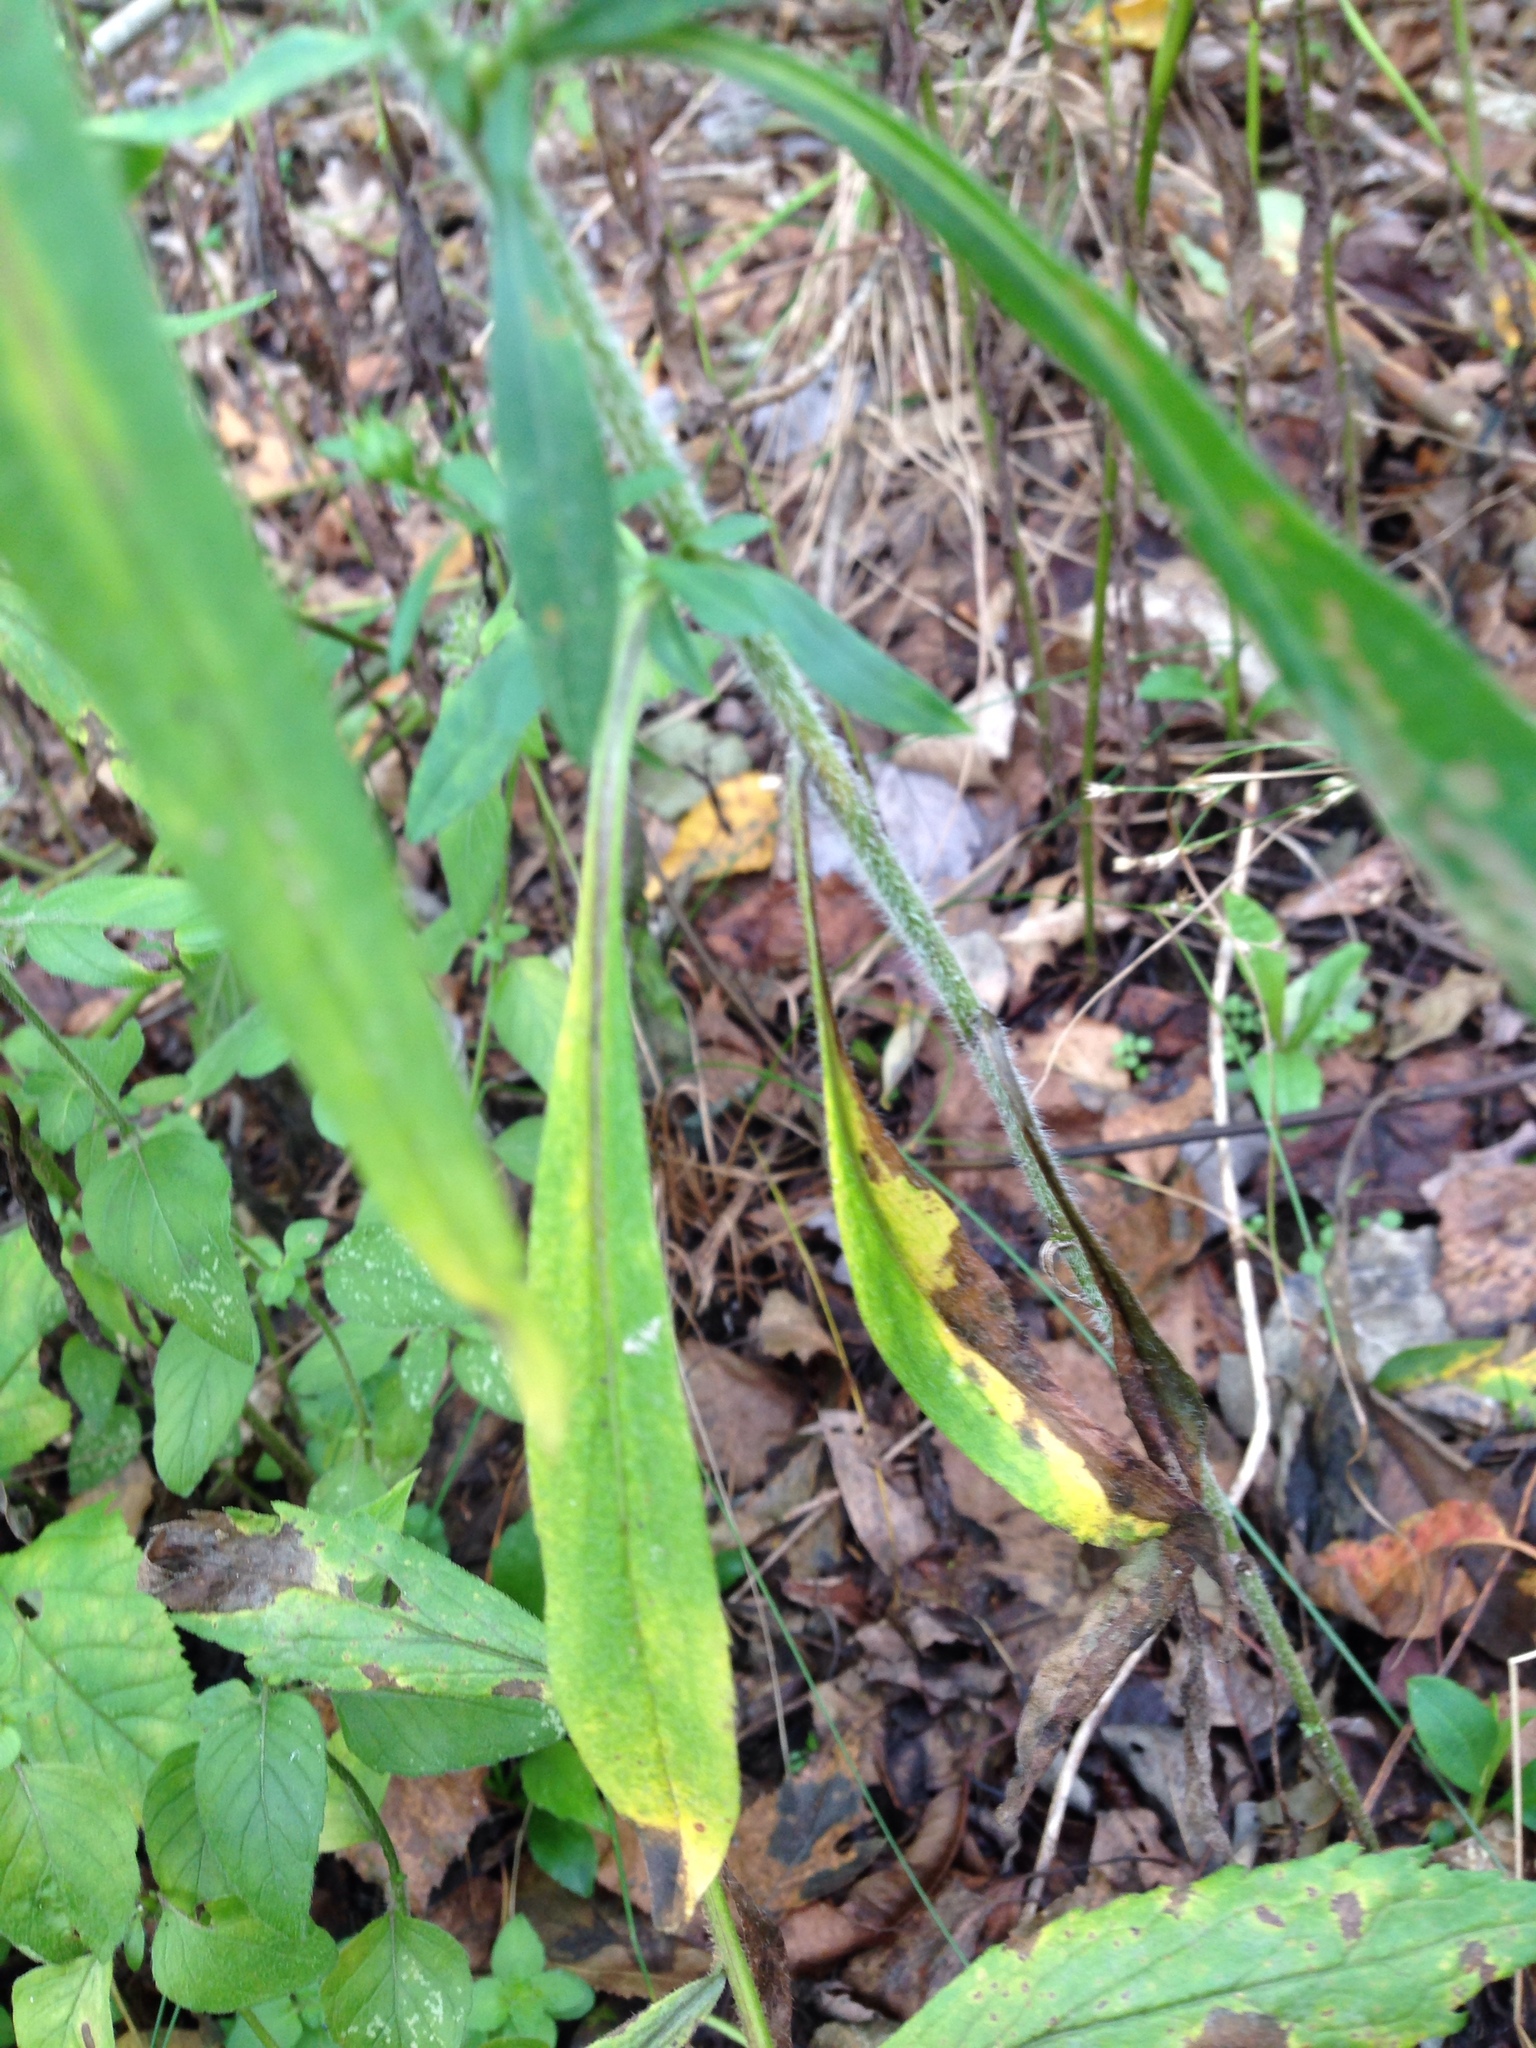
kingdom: Plantae
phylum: Tracheophyta
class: Magnoliopsida
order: Asterales
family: Asteraceae
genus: Symphyotrichum
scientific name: Symphyotrichum pilosum
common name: Awl aster
